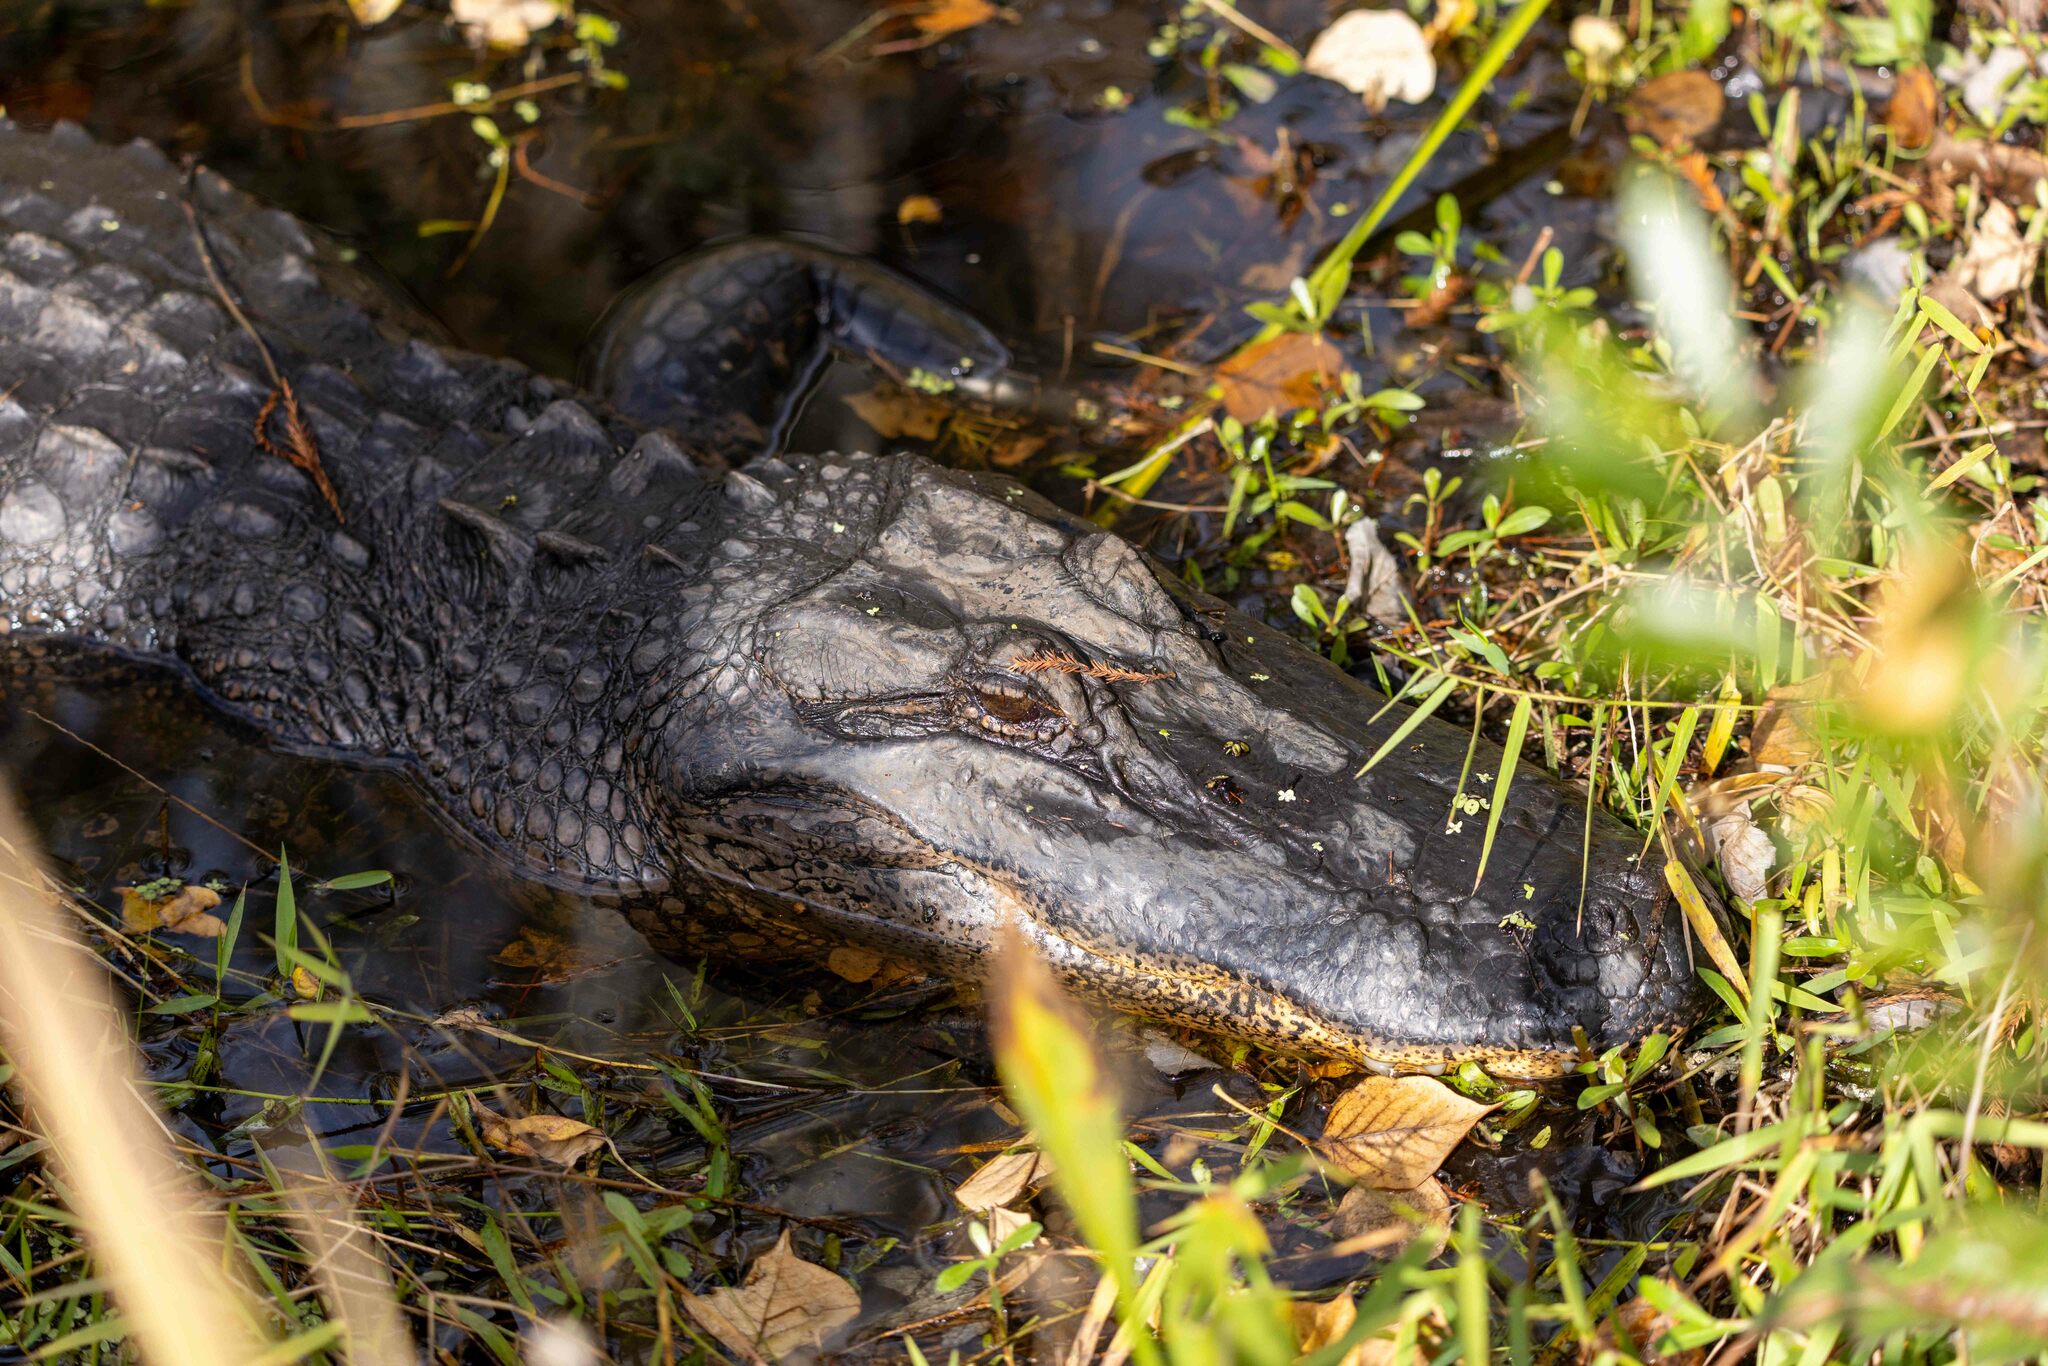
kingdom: Animalia
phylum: Chordata
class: Crocodylia
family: Alligatoridae
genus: Alligator
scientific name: Alligator mississippiensis
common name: American alligator
